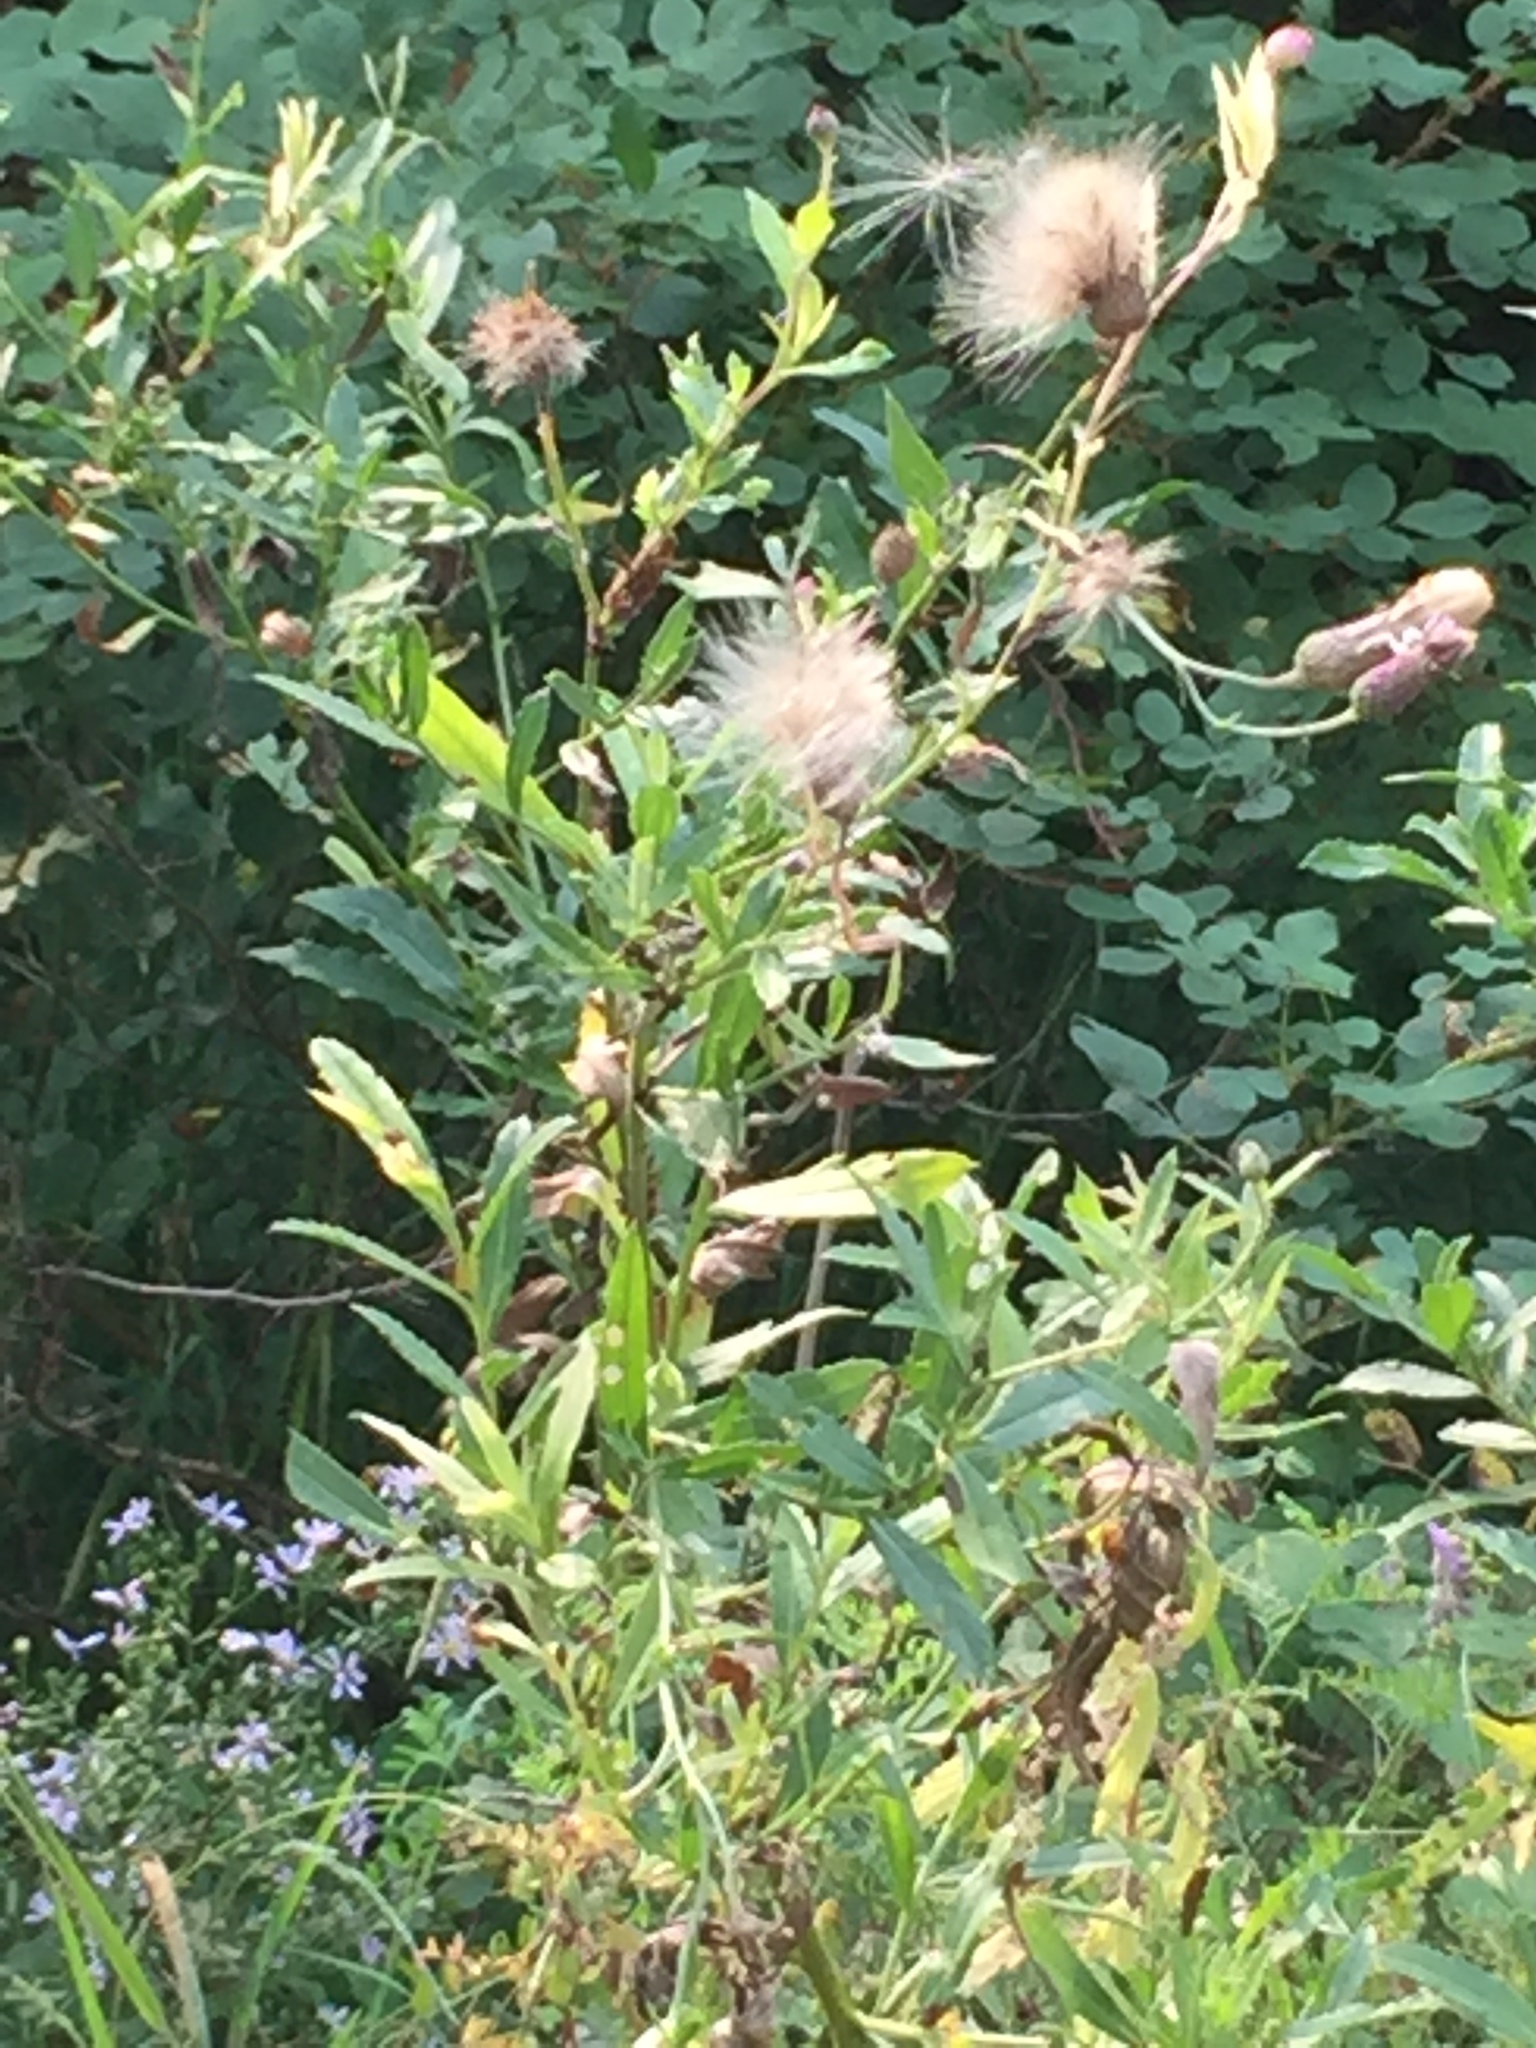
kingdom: Plantae
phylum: Tracheophyta
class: Magnoliopsida
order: Asterales
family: Asteraceae
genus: Cirsium
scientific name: Cirsium arvense
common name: Creeping thistle
